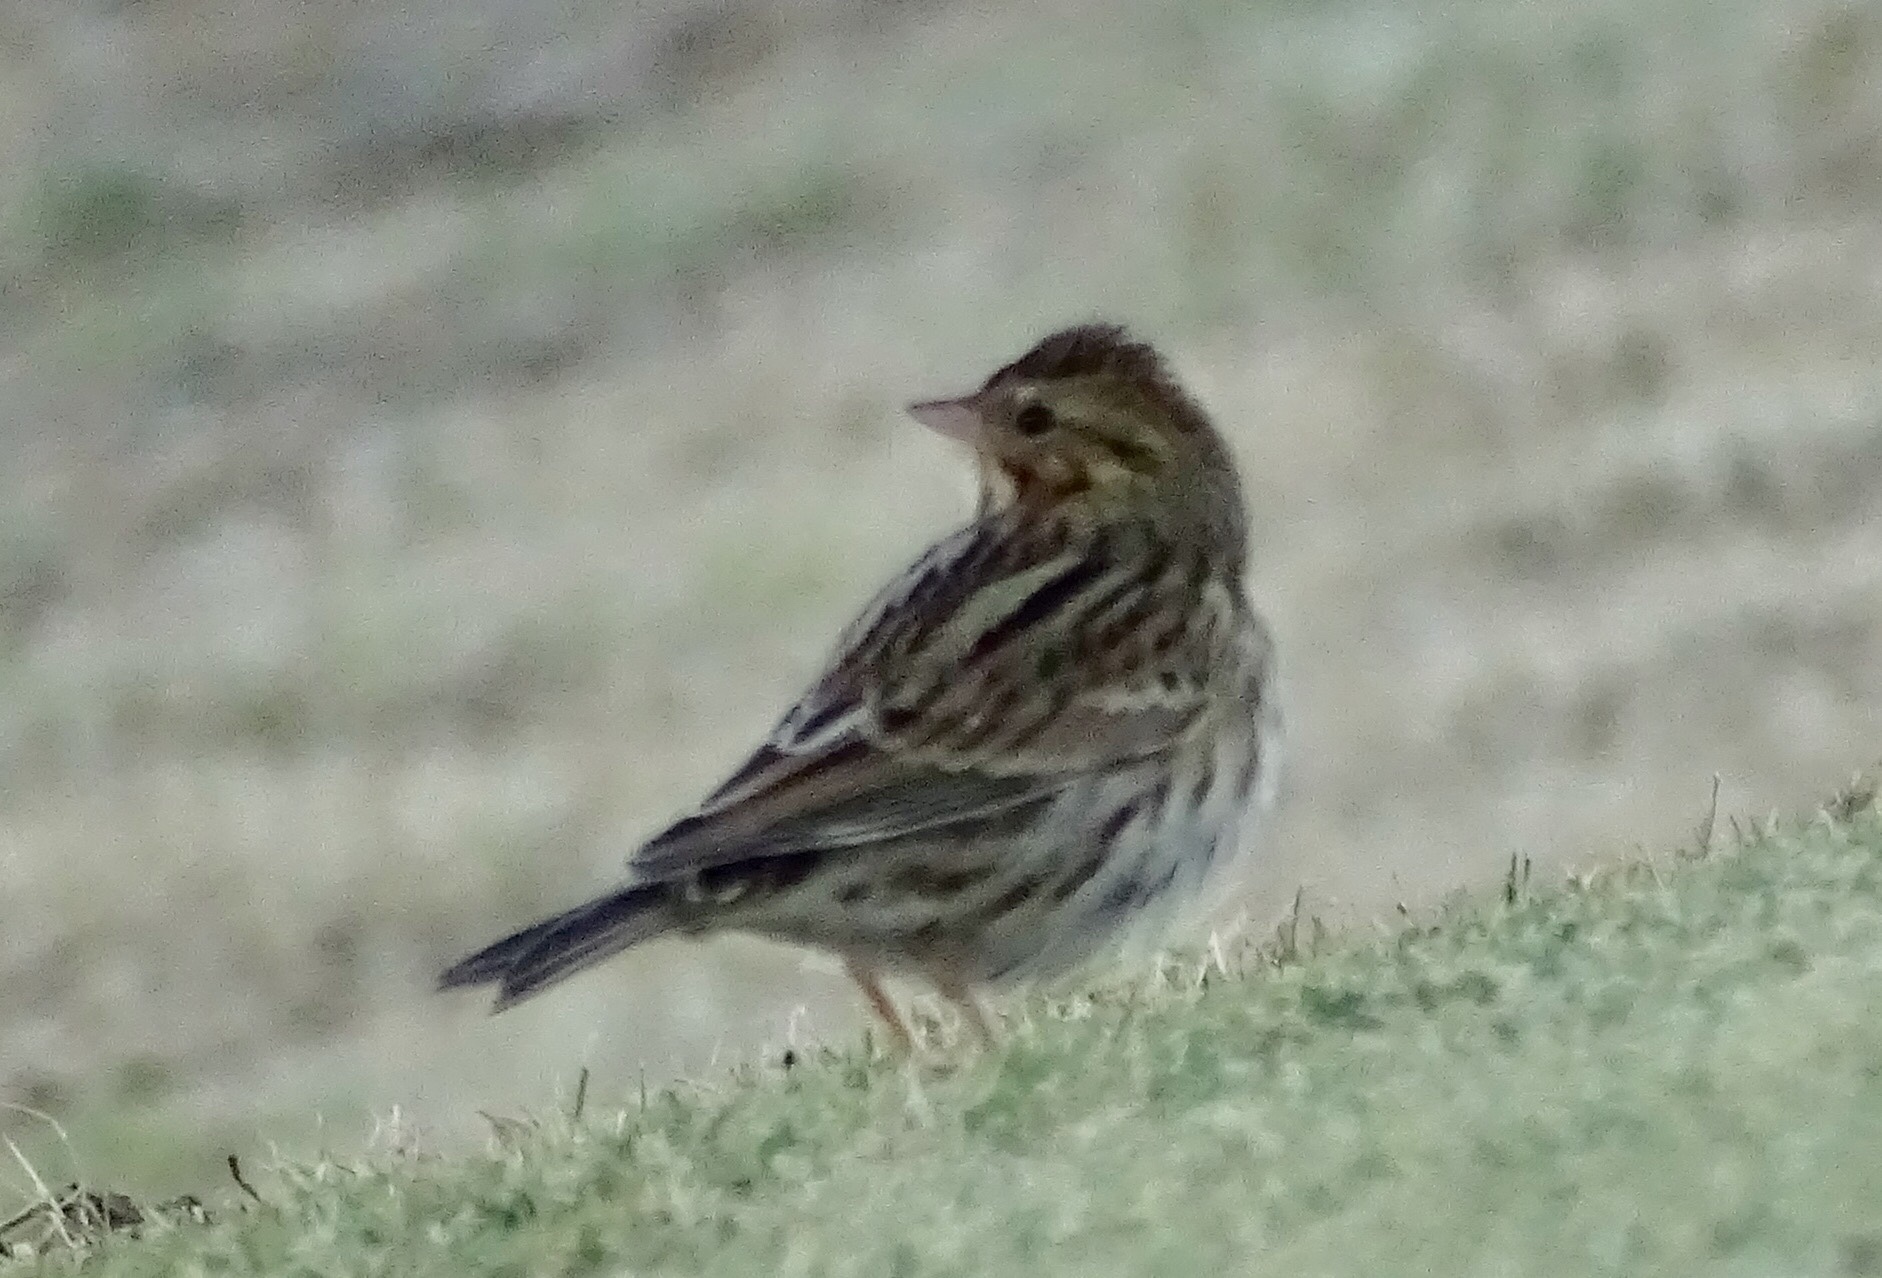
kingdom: Animalia
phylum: Chordata
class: Aves
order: Passeriformes
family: Passerellidae
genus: Passerculus
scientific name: Passerculus sandwichensis
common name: Savannah sparrow
